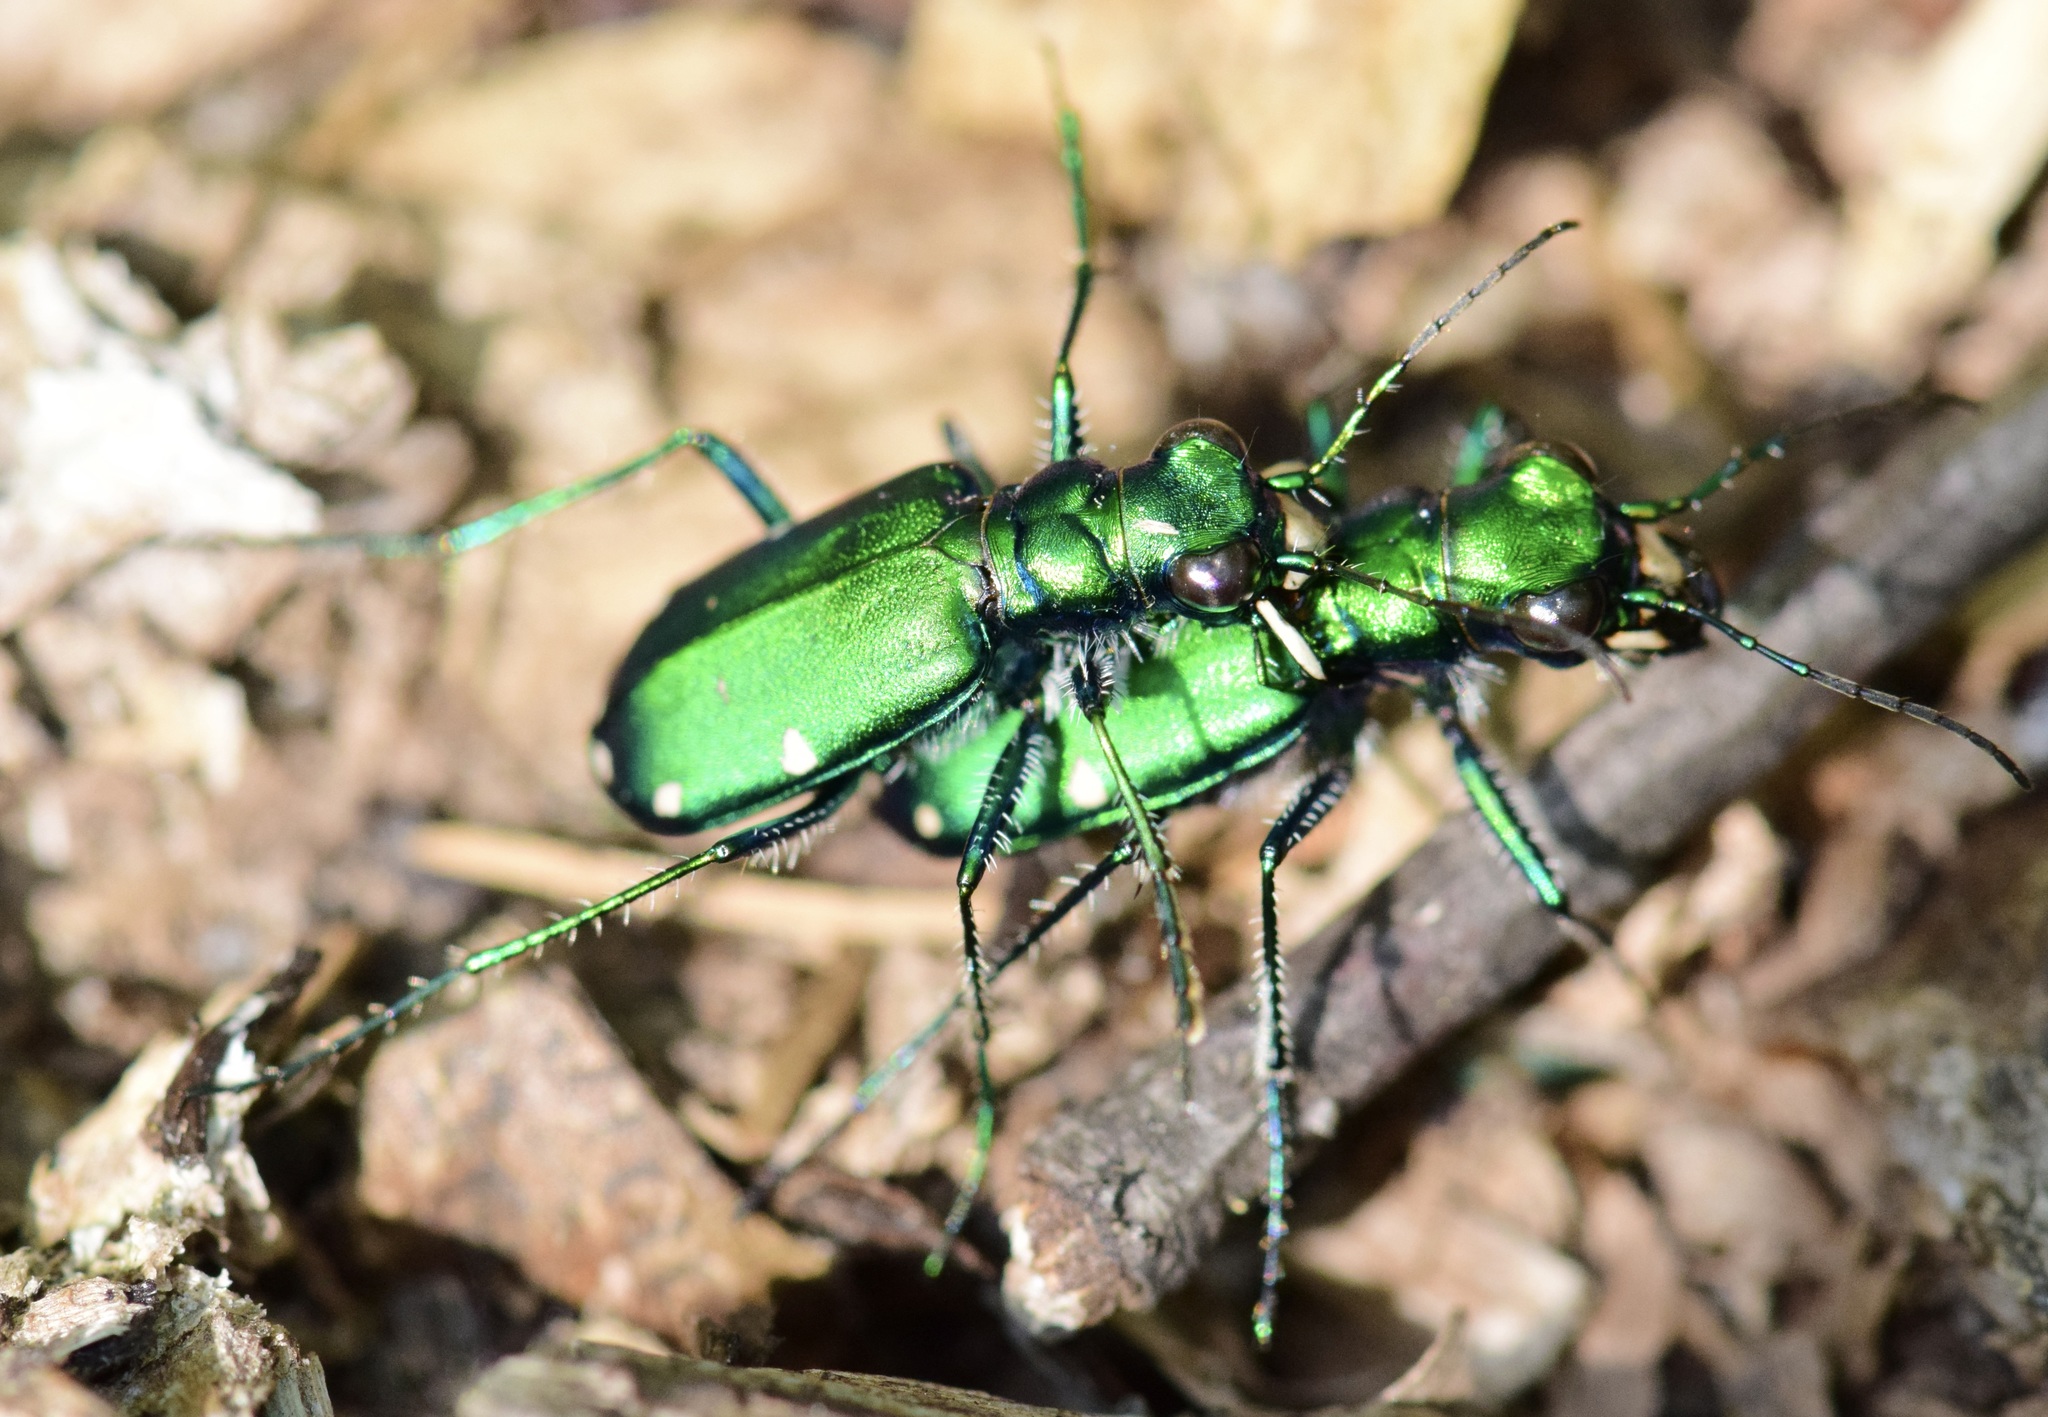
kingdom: Animalia
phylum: Arthropoda
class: Insecta
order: Coleoptera
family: Carabidae
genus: Cicindela
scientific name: Cicindela sexguttata
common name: Six-spotted tiger beetle
